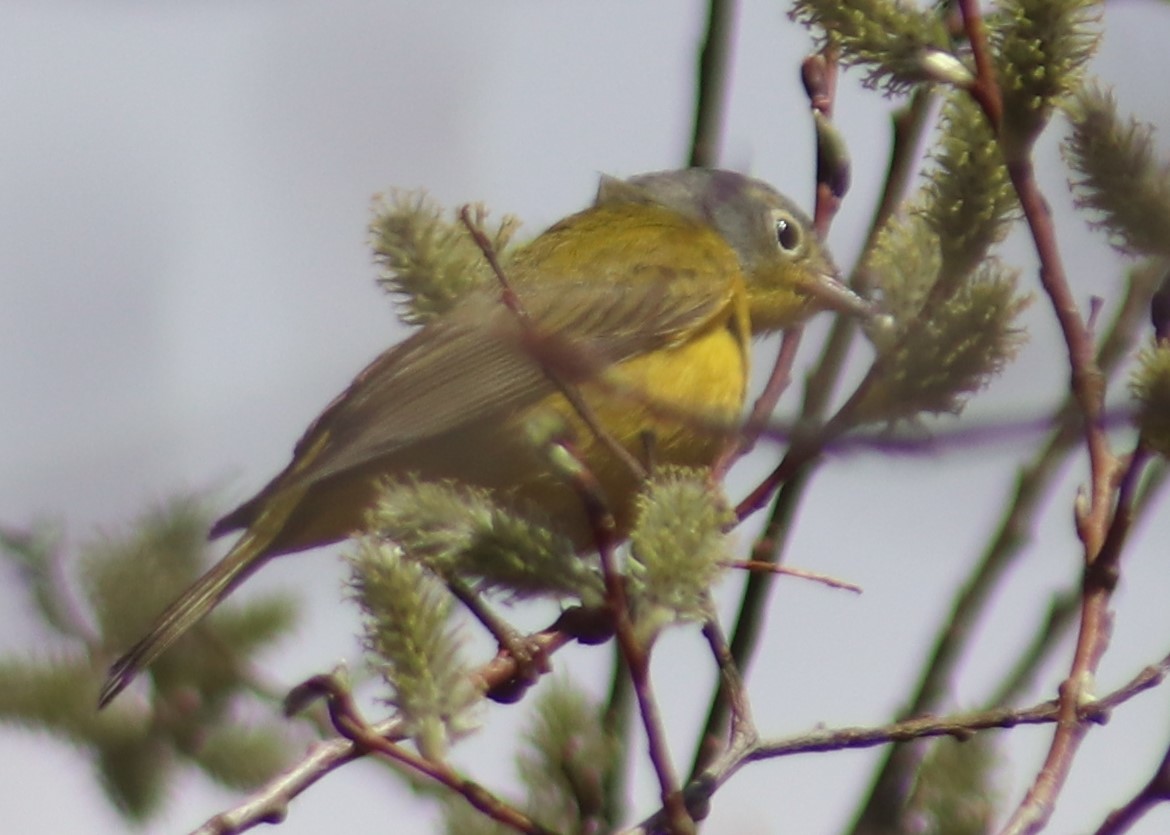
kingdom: Animalia
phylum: Chordata
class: Aves
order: Passeriformes
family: Parulidae
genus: Leiothlypis
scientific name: Leiothlypis ruficapilla
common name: Nashville warbler
